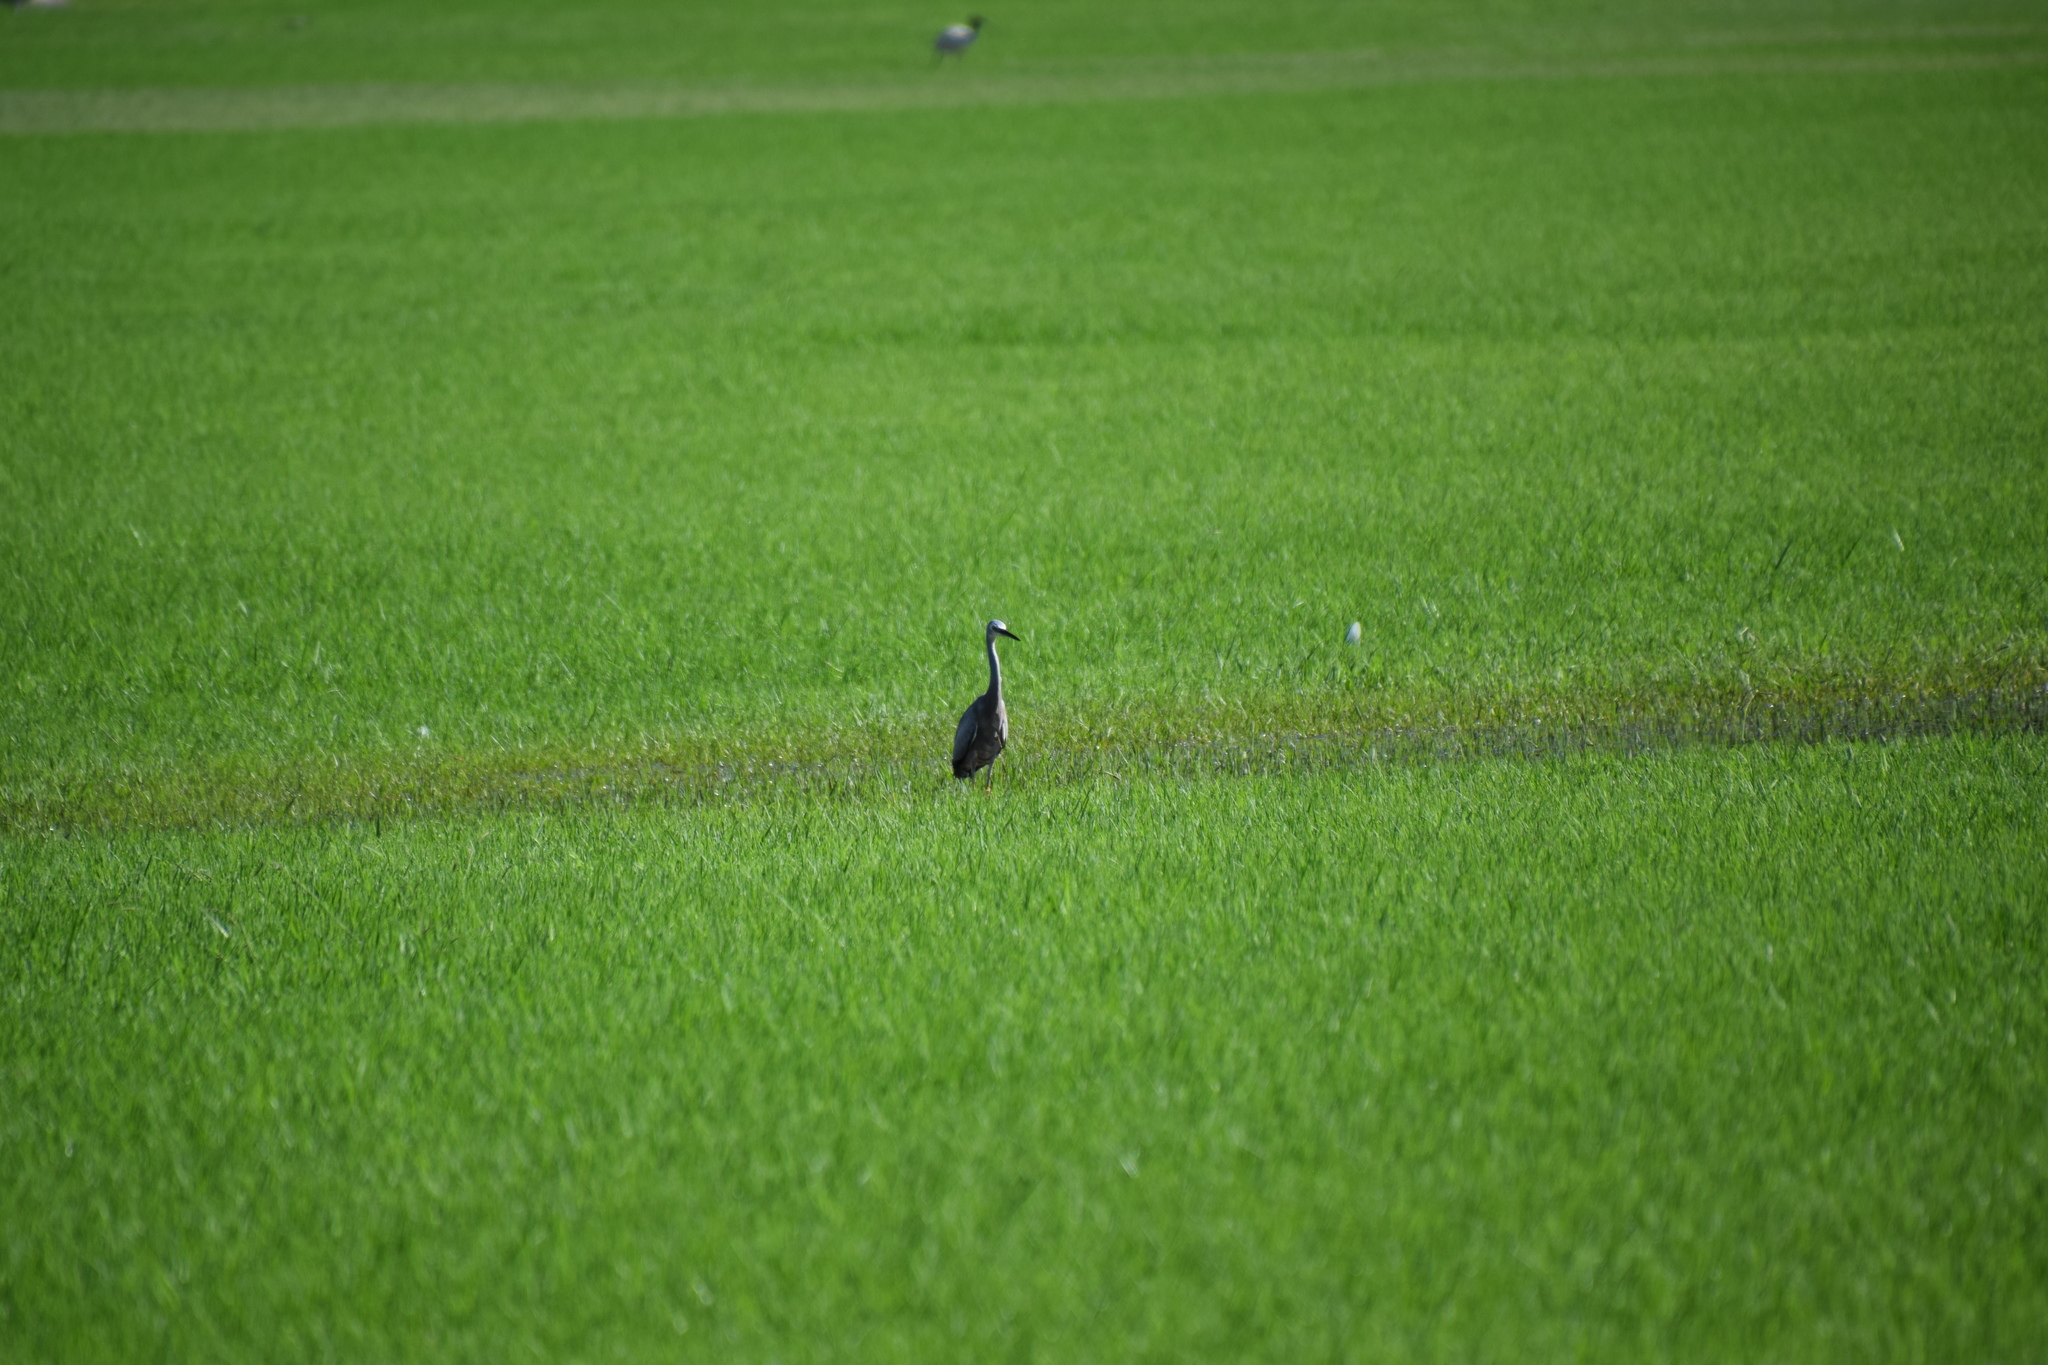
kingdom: Animalia
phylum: Chordata
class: Aves
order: Pelecaniformes
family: Ardeidae
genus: Egretta
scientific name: Egretta novaehollandiae
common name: White-faced heron
